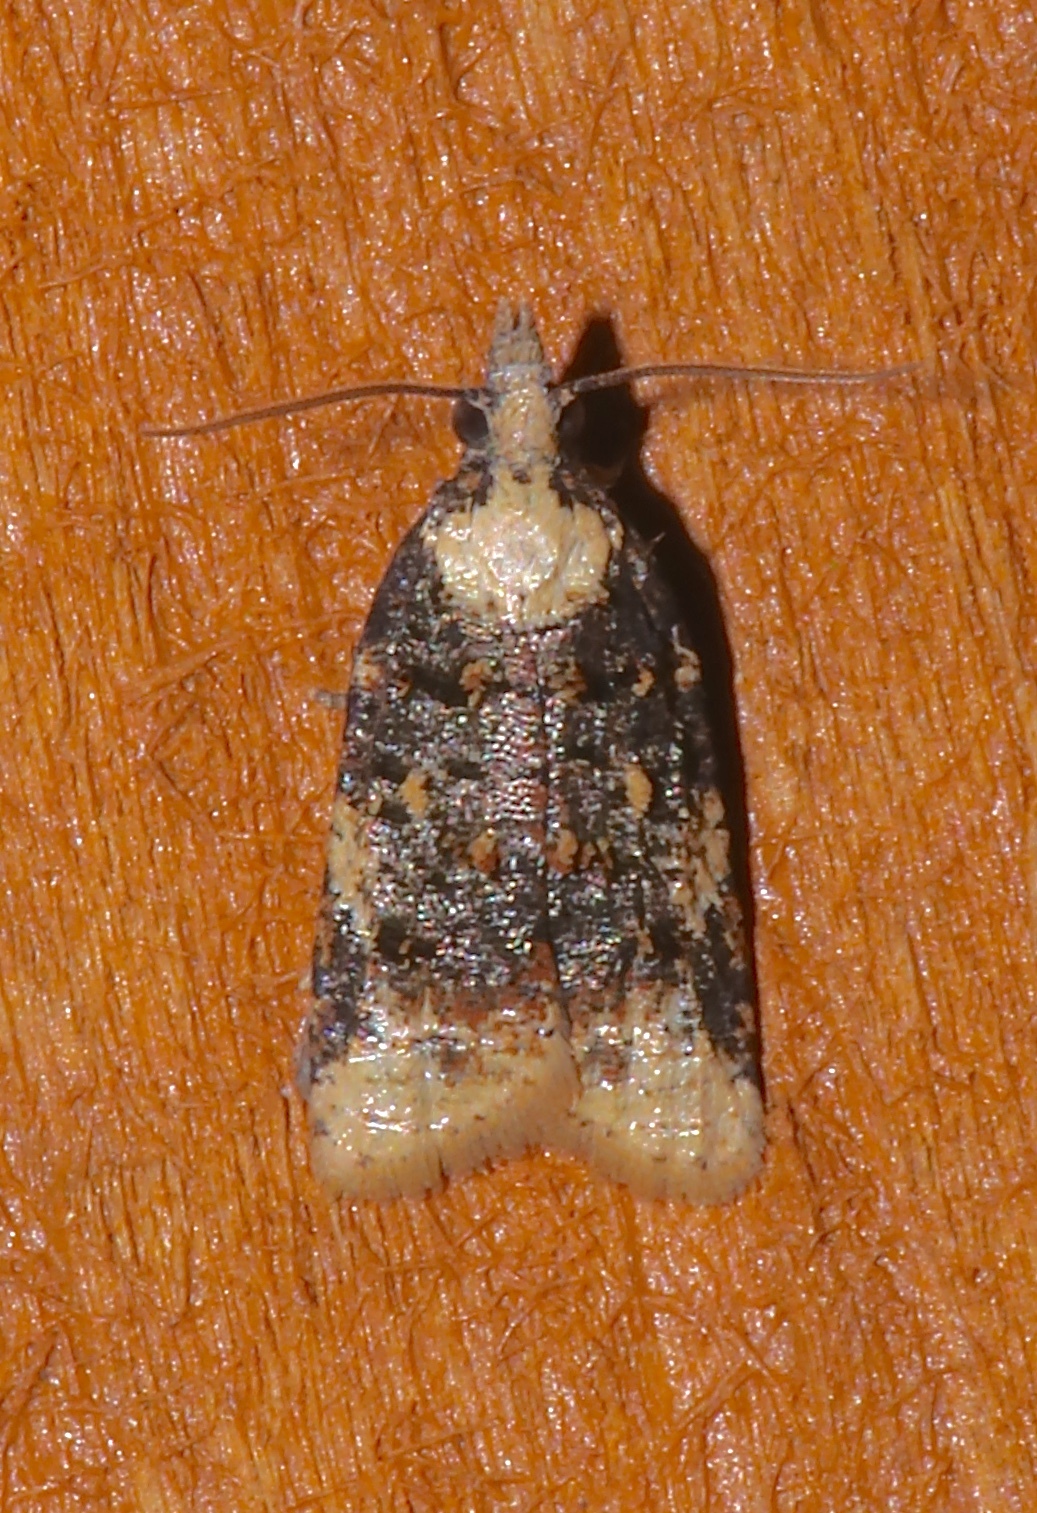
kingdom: Animalia
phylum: Arthropoda
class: Insecta
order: Lepidoptera
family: Tortricidae
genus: Platynota
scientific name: Platynota exasperatana
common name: Exasperating platynota moth
